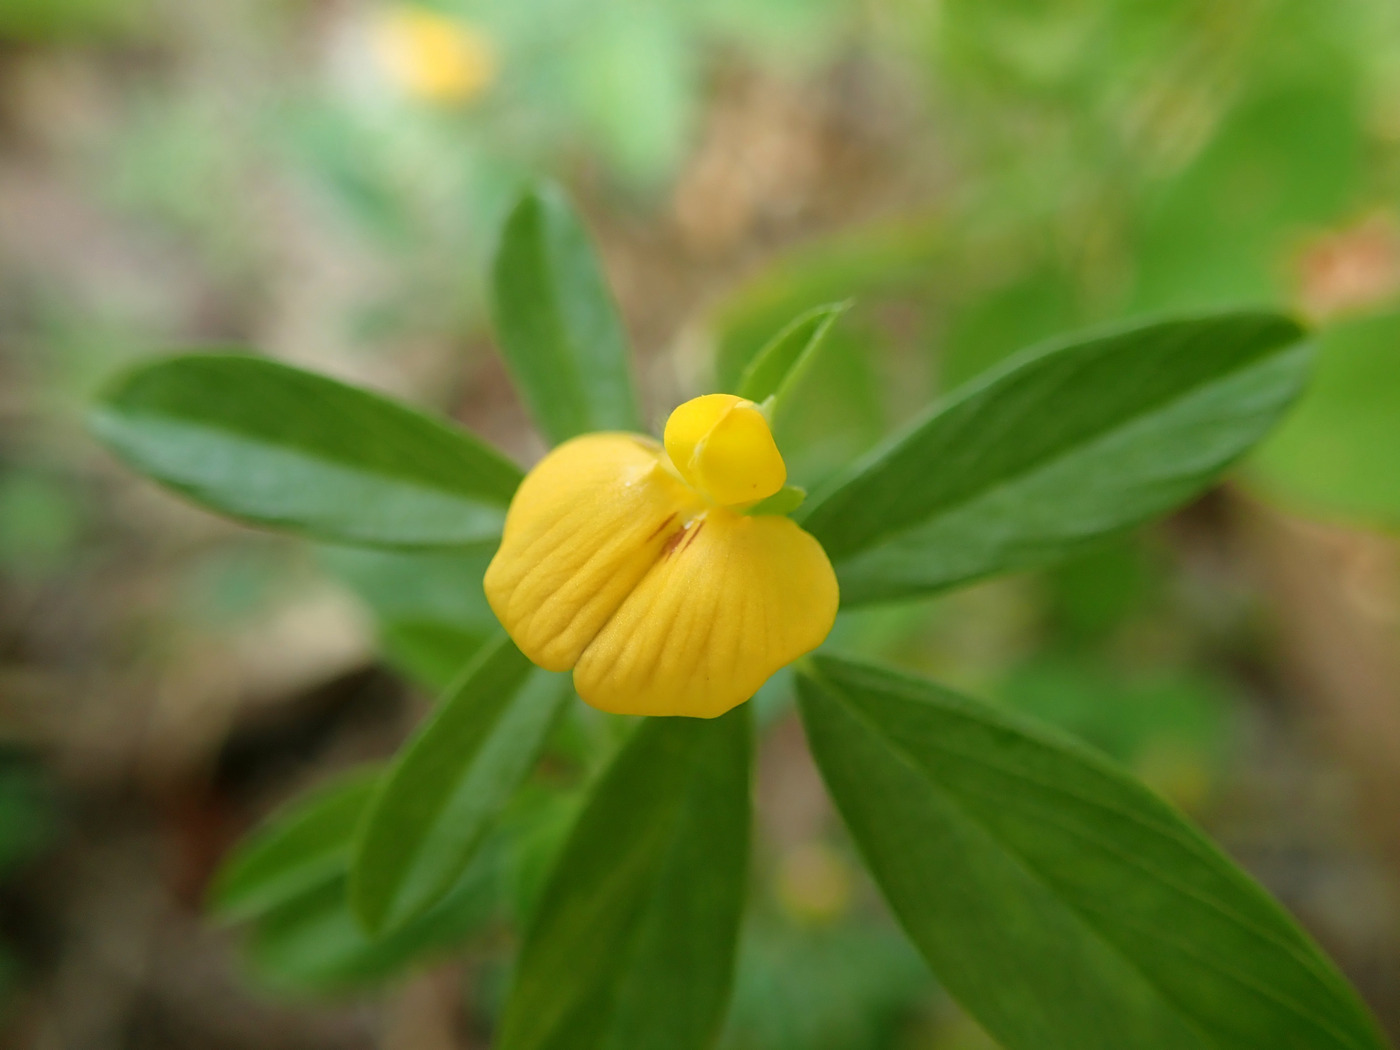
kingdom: Plantae
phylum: Tracheophyta
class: Magnoliopsida
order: Fabales
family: Fabaceae
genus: Stylosanthes
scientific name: Stylosanthes biflora
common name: Two-flower pencil-flower
